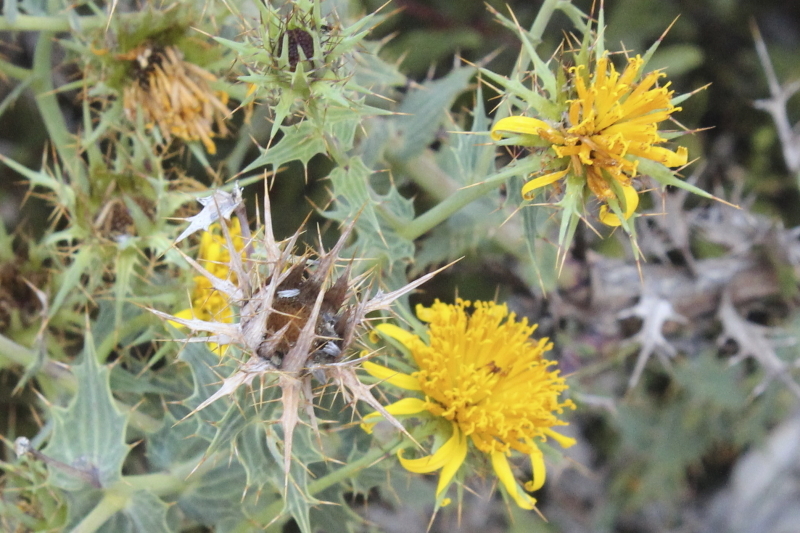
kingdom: Plantae
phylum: Tracheophyta
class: Magnoliopsida
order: Asterales
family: Asteraceae
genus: Berkheya
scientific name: Berkheya cruciata
